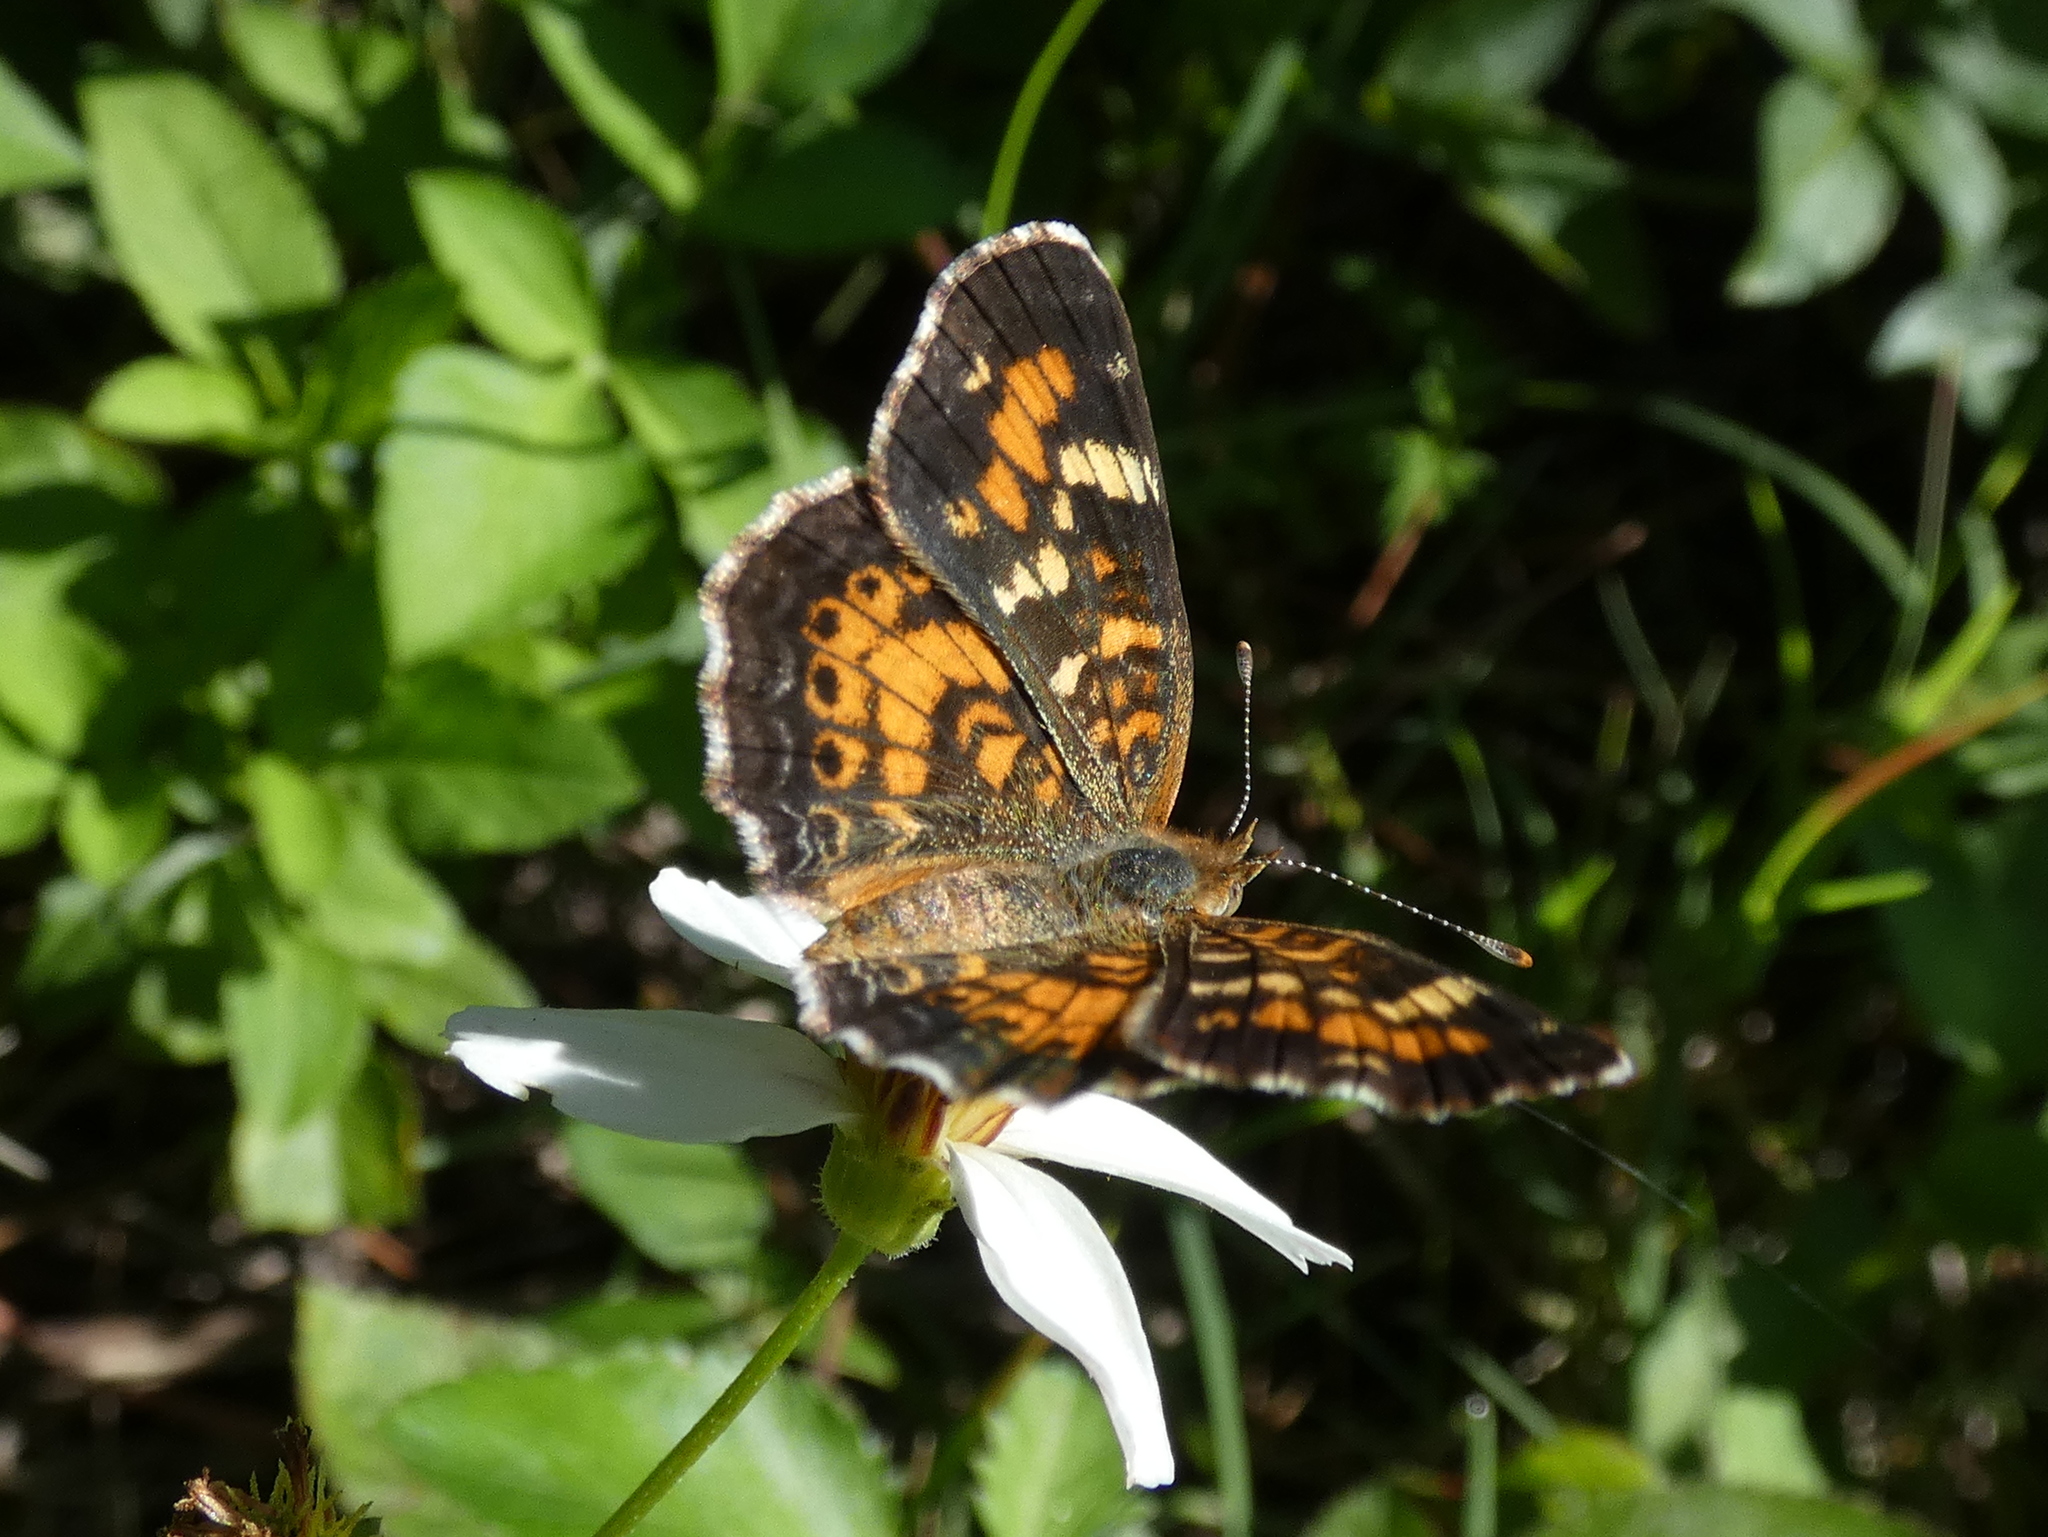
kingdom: Animalia
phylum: Arthropoda
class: Insecta
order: Lepidoptera
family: Nymphalidae
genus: Phyciodes
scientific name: Phyciodes phaon
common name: Phaon crescent
